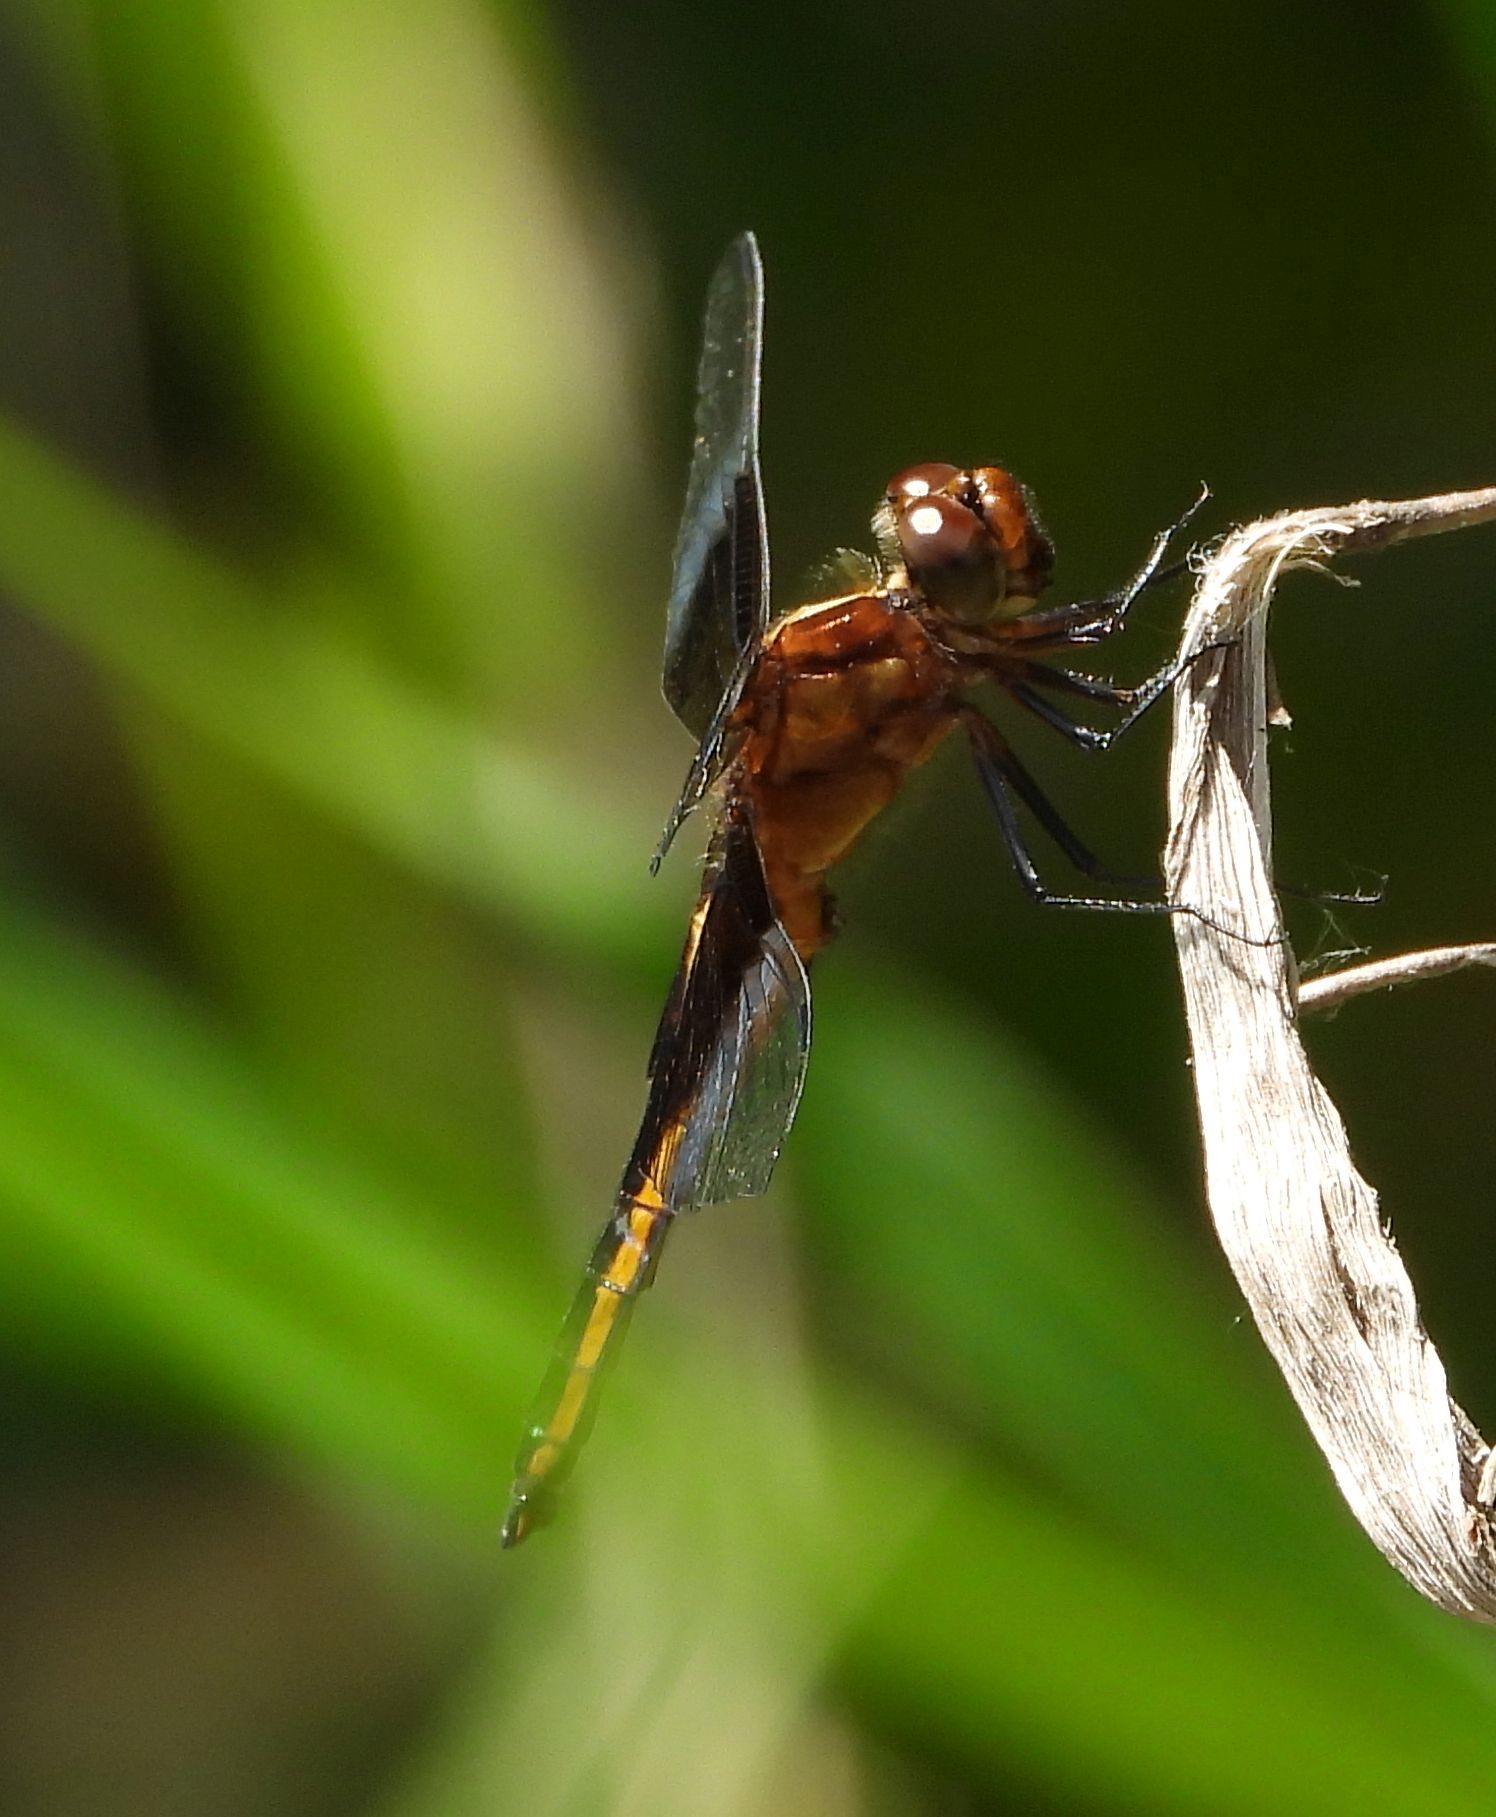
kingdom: Animalia
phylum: Arthropoda
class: Insecta
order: Odonata
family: Libellulidae
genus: Libellula
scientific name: Libellula luctuosa
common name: Widow skimmer
